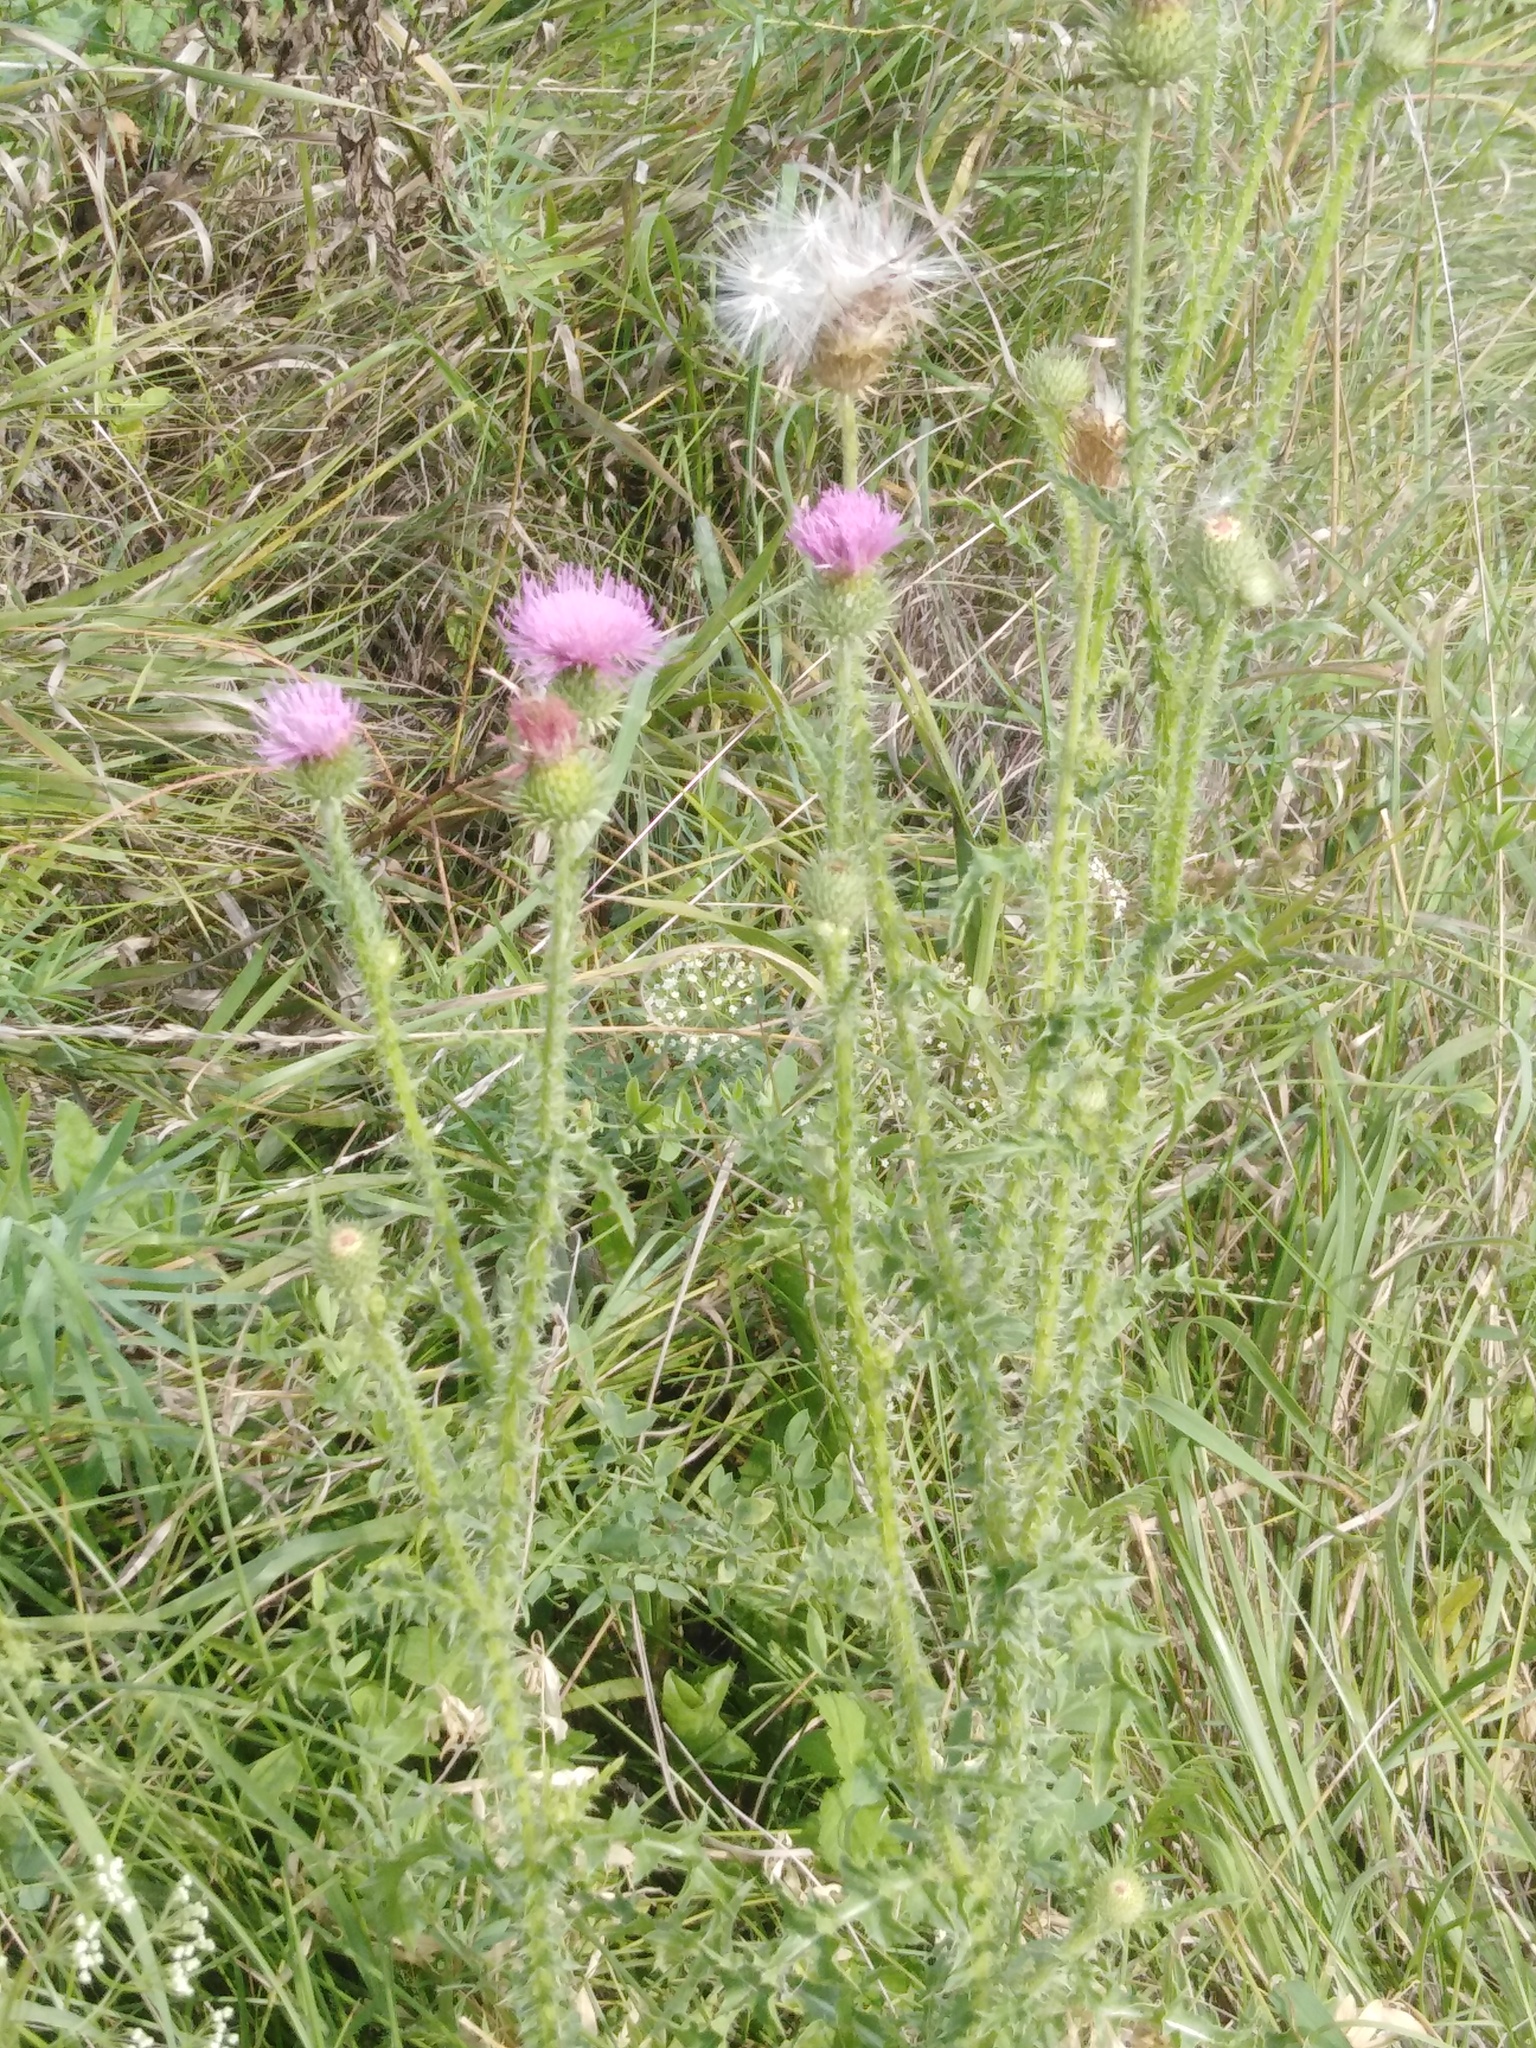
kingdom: Plantae
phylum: Tracheophyta
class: Magnoliopsida
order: Asterales
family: Asteraceae
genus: Carduus
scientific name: Carduus acanthoides
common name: Plumeless thistle
